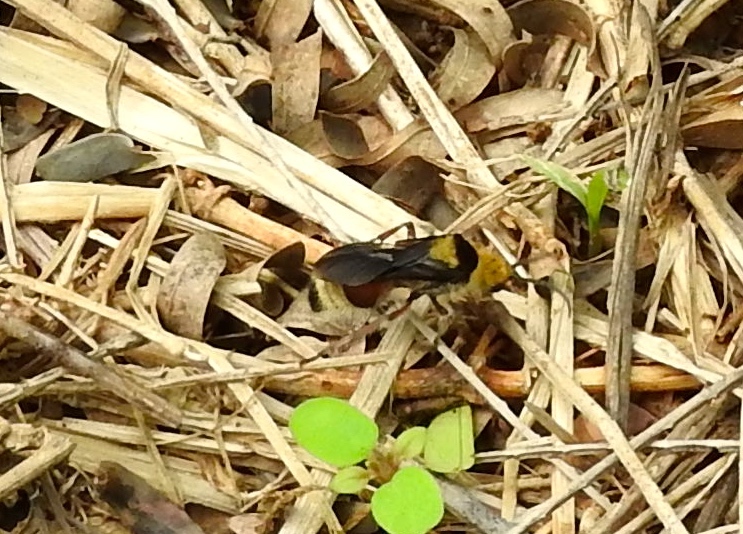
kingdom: Animalia
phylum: Arthropoda
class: Insecta
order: Hymenoptera
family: Mutillidae
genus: Dasymutilla
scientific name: Dasymutilla
